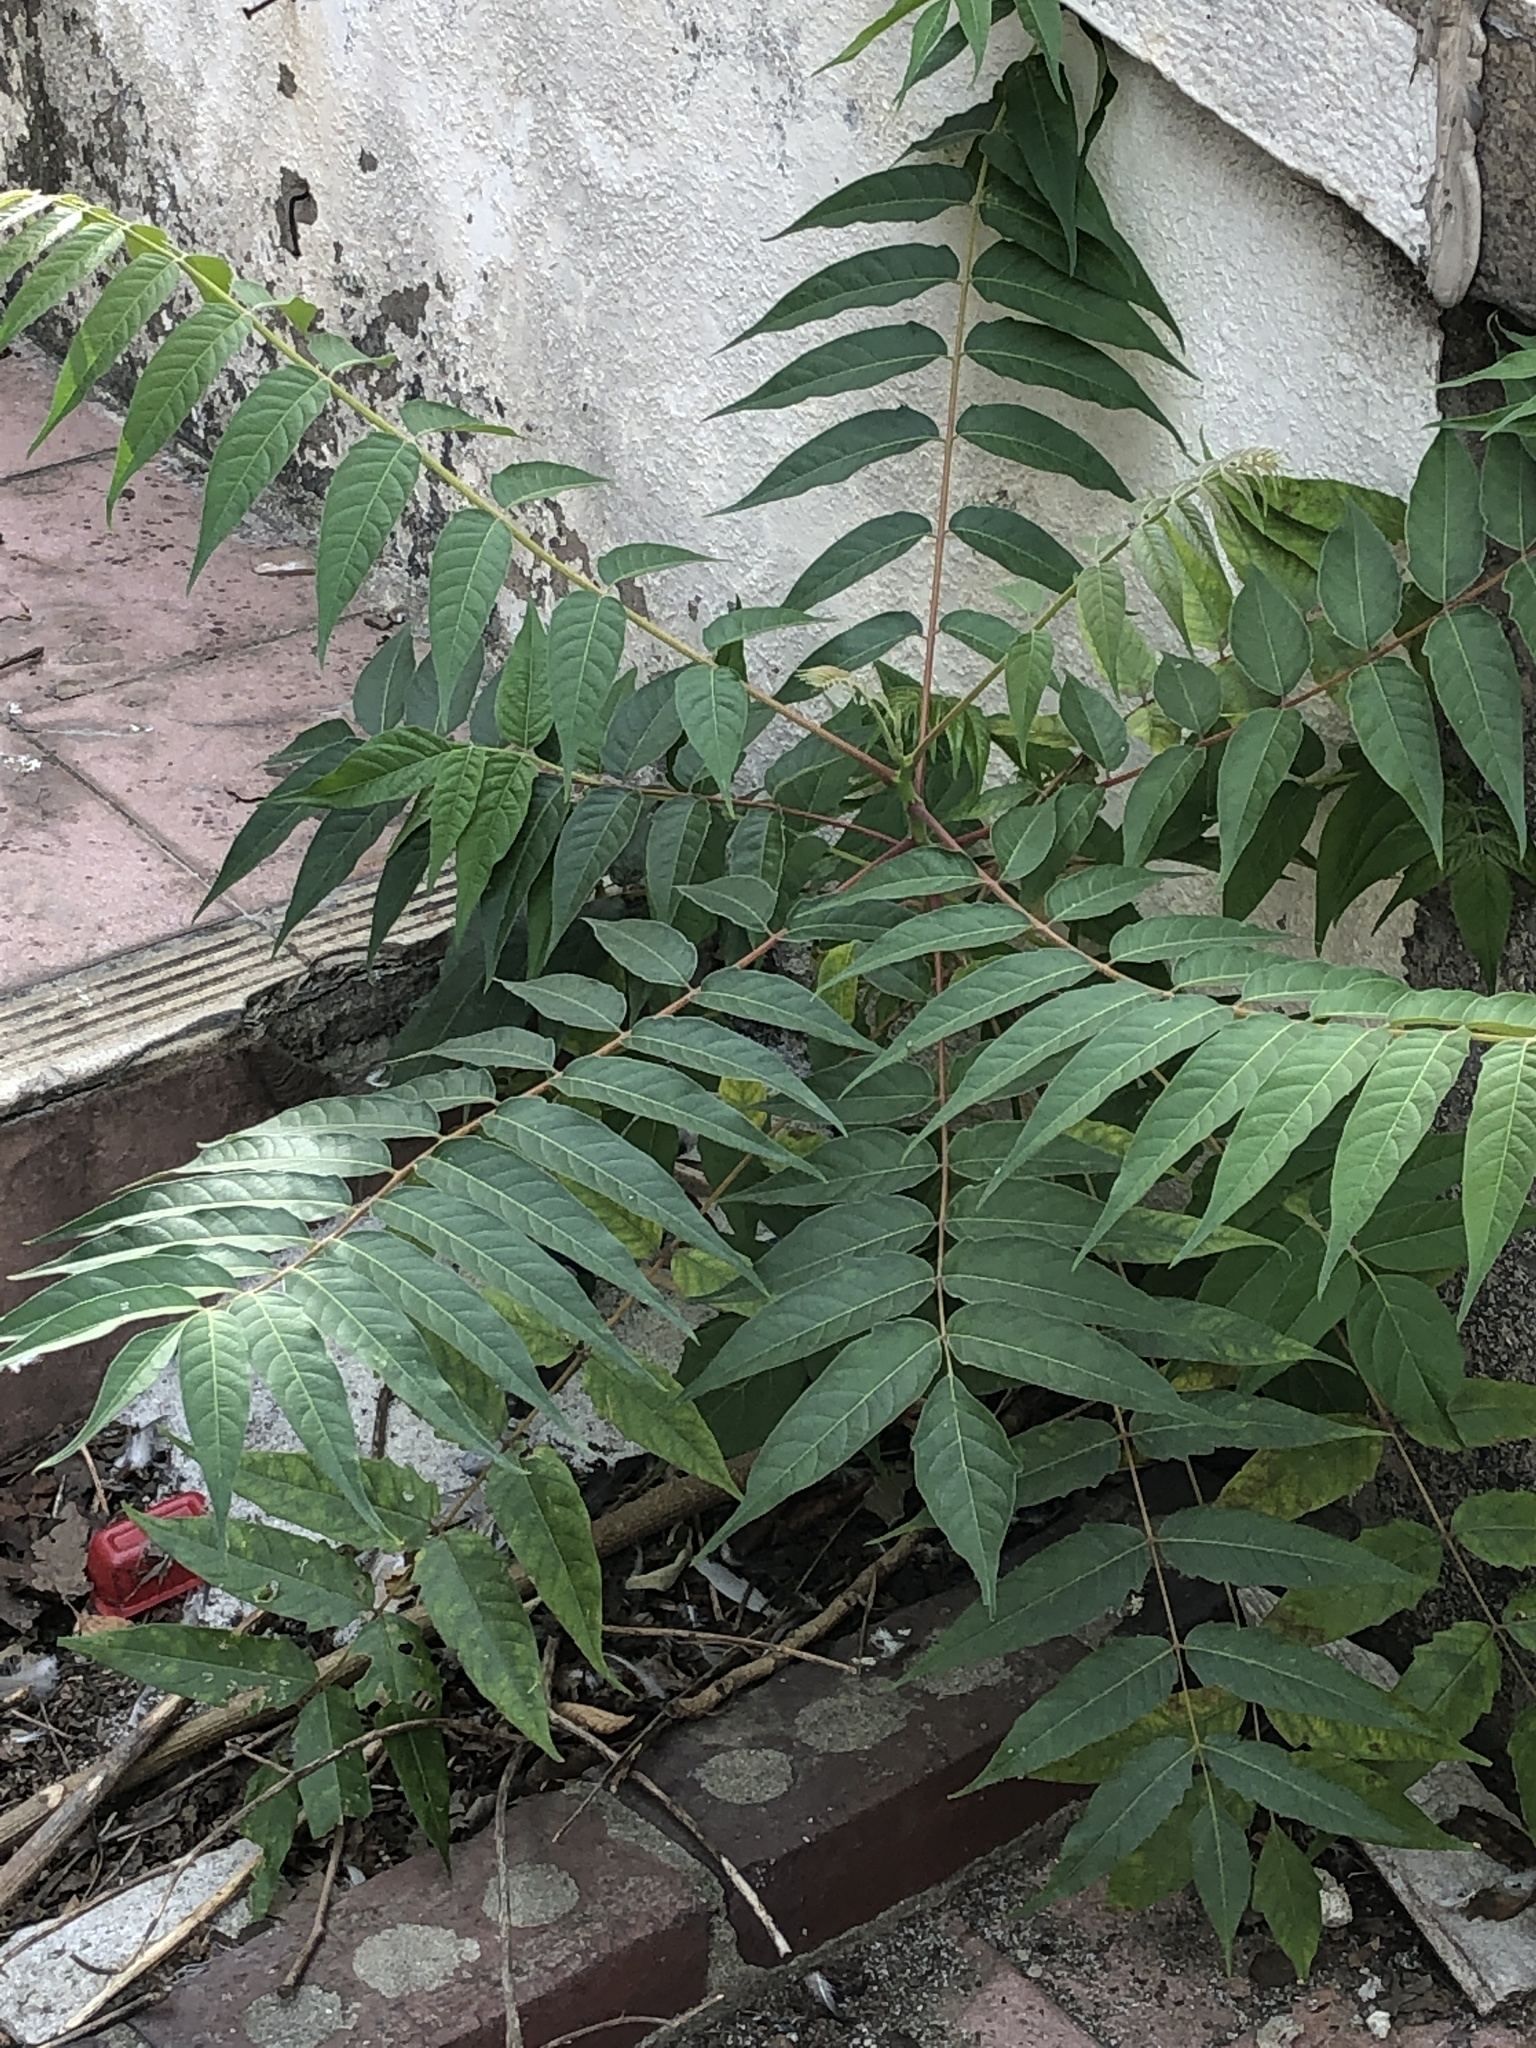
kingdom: Plantae
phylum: Tracheophyta
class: Magnoliopsida
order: Sapindales
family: Simaroubaceae
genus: Ailanthus
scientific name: Ailanthus altissima
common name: Tree-of-heaven
